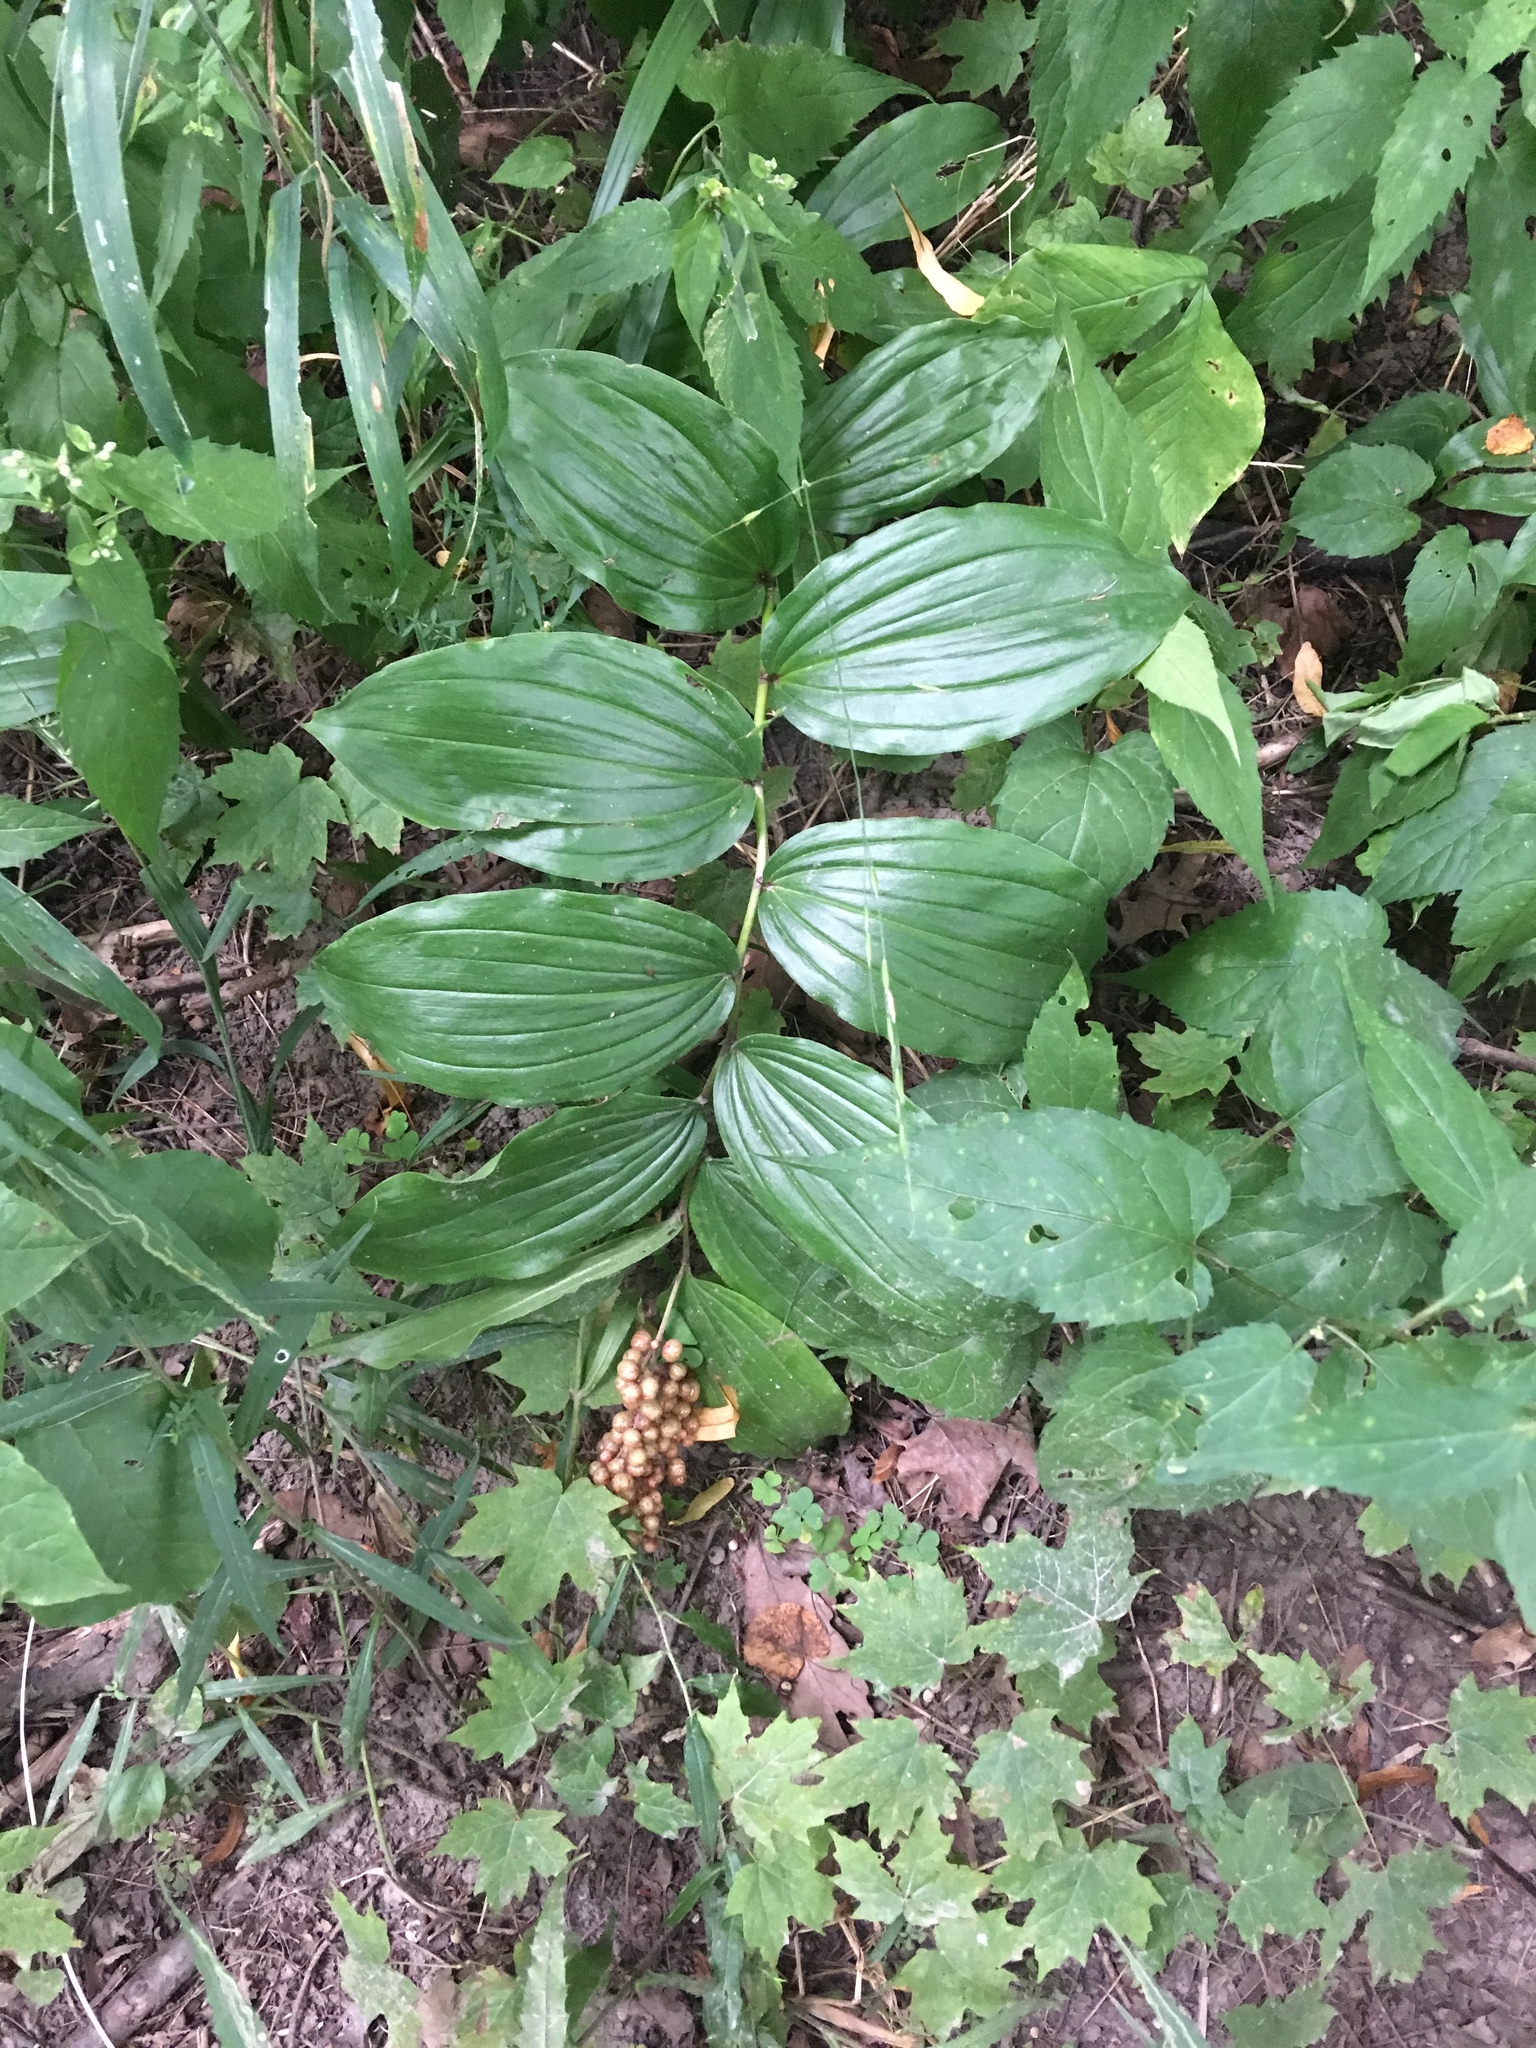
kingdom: Plantae
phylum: Tracheophyta
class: Liliopsida
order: Asparagales
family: Asparagaceae
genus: Maianthemum
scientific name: Maianthemum racemosum
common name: False spikenard
